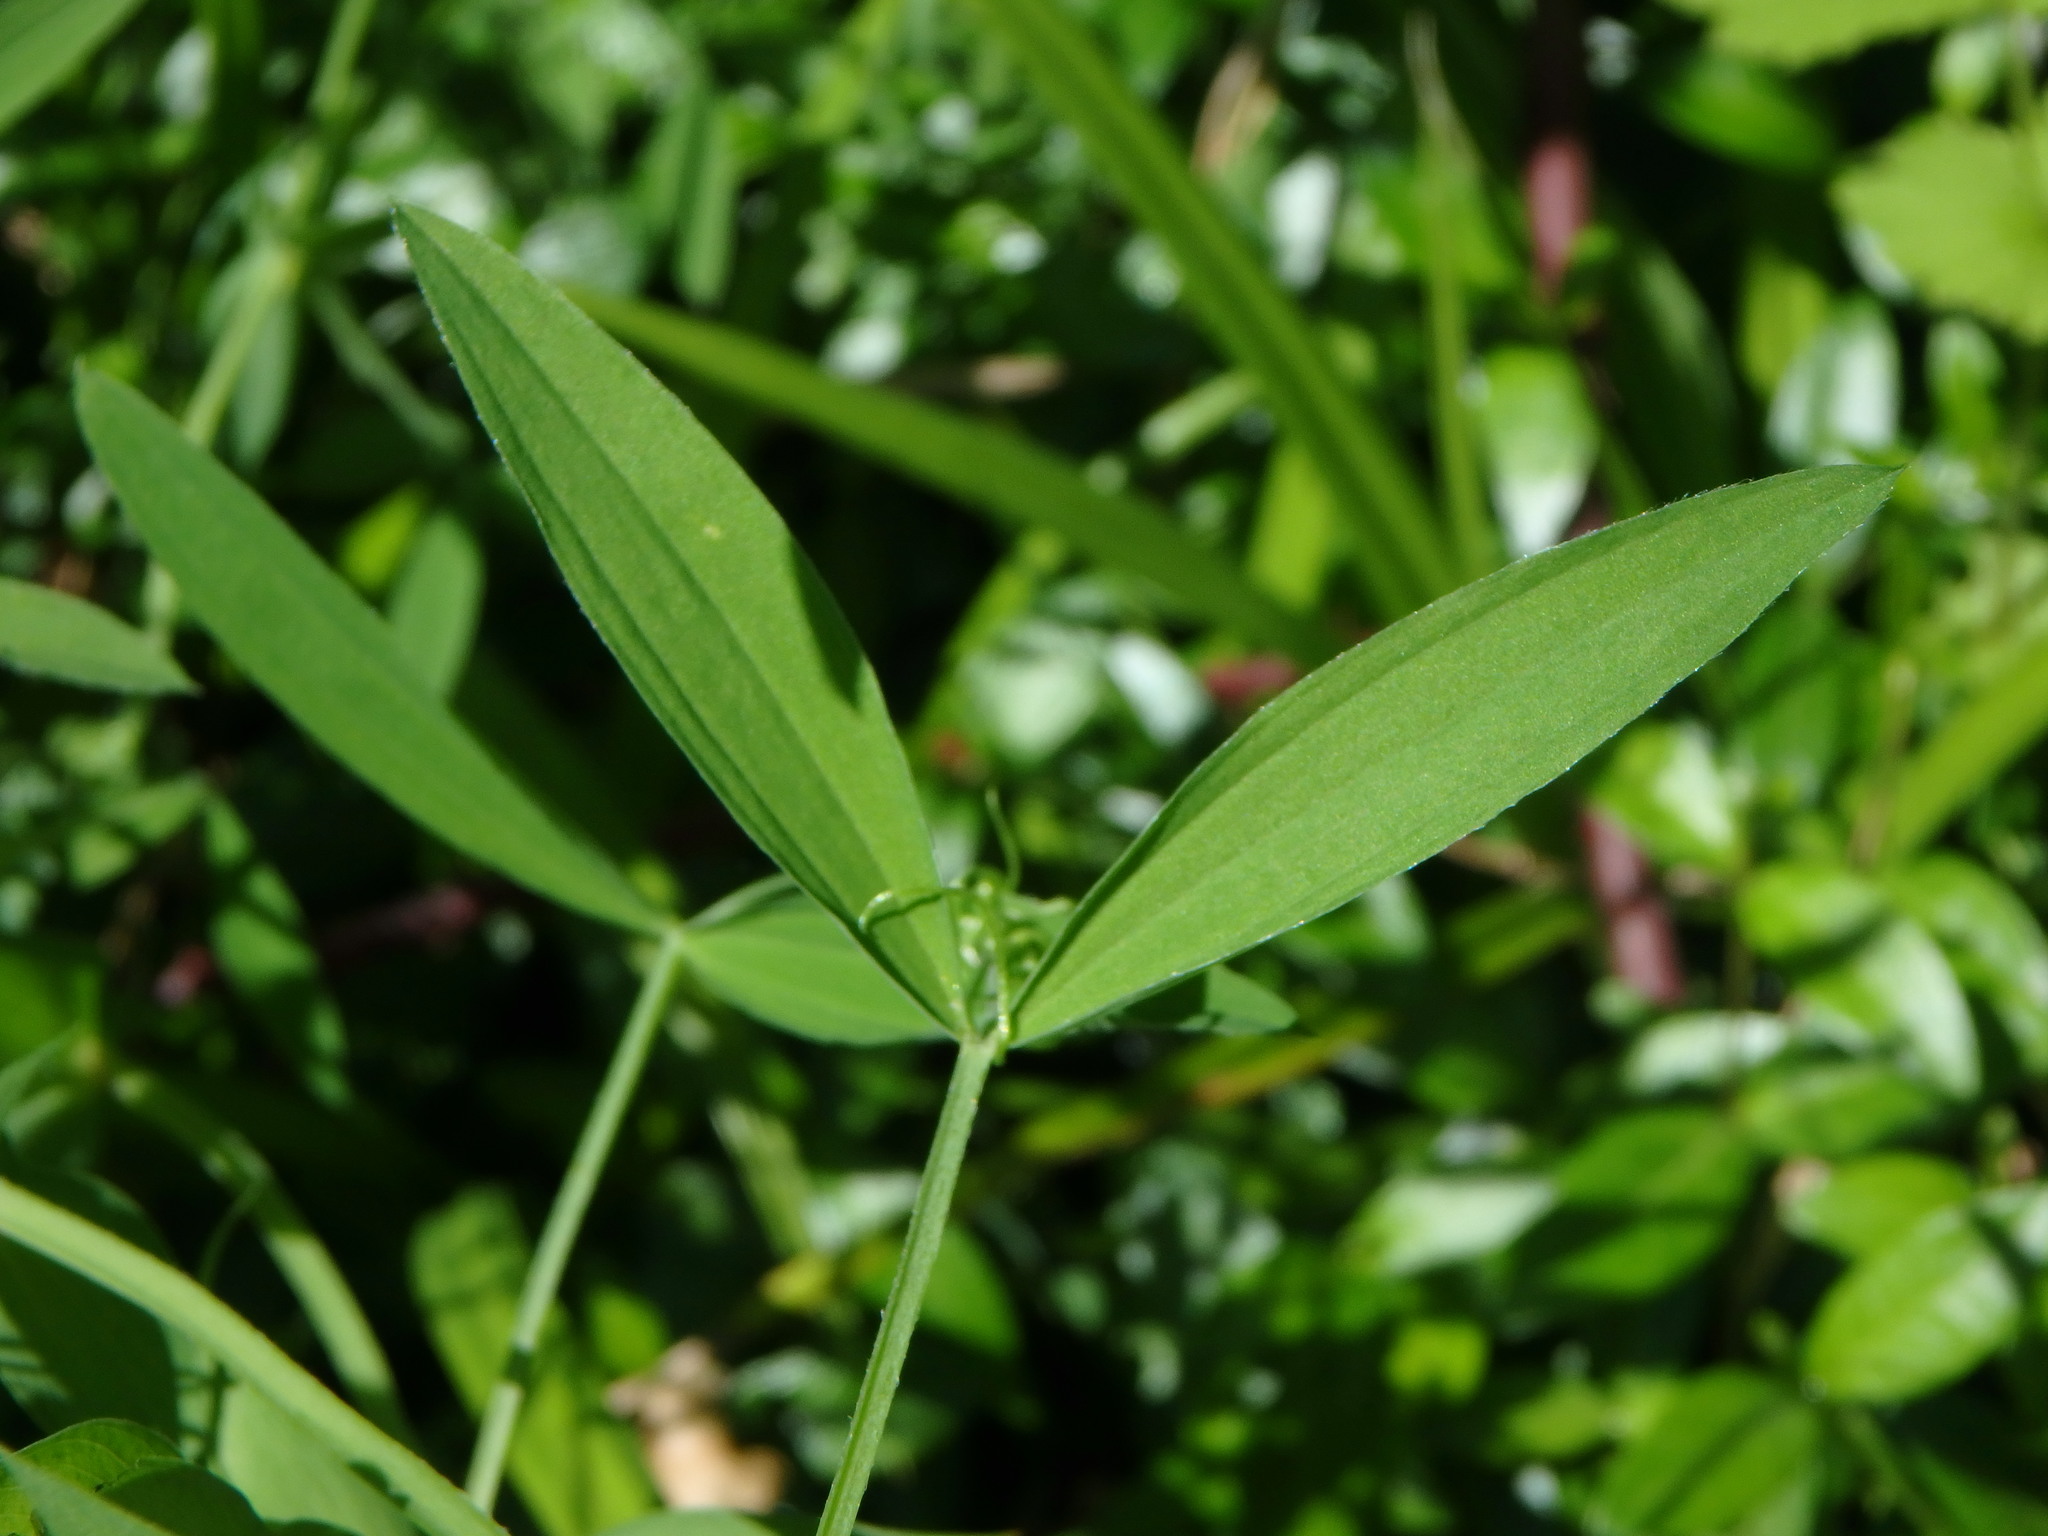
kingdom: Plantae
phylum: Tracheophyta
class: Magnoliopsida
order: Fabales
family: Fabaceae
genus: Lathyrus
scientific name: Lathyrus pratensis
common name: Meadow vetchling
